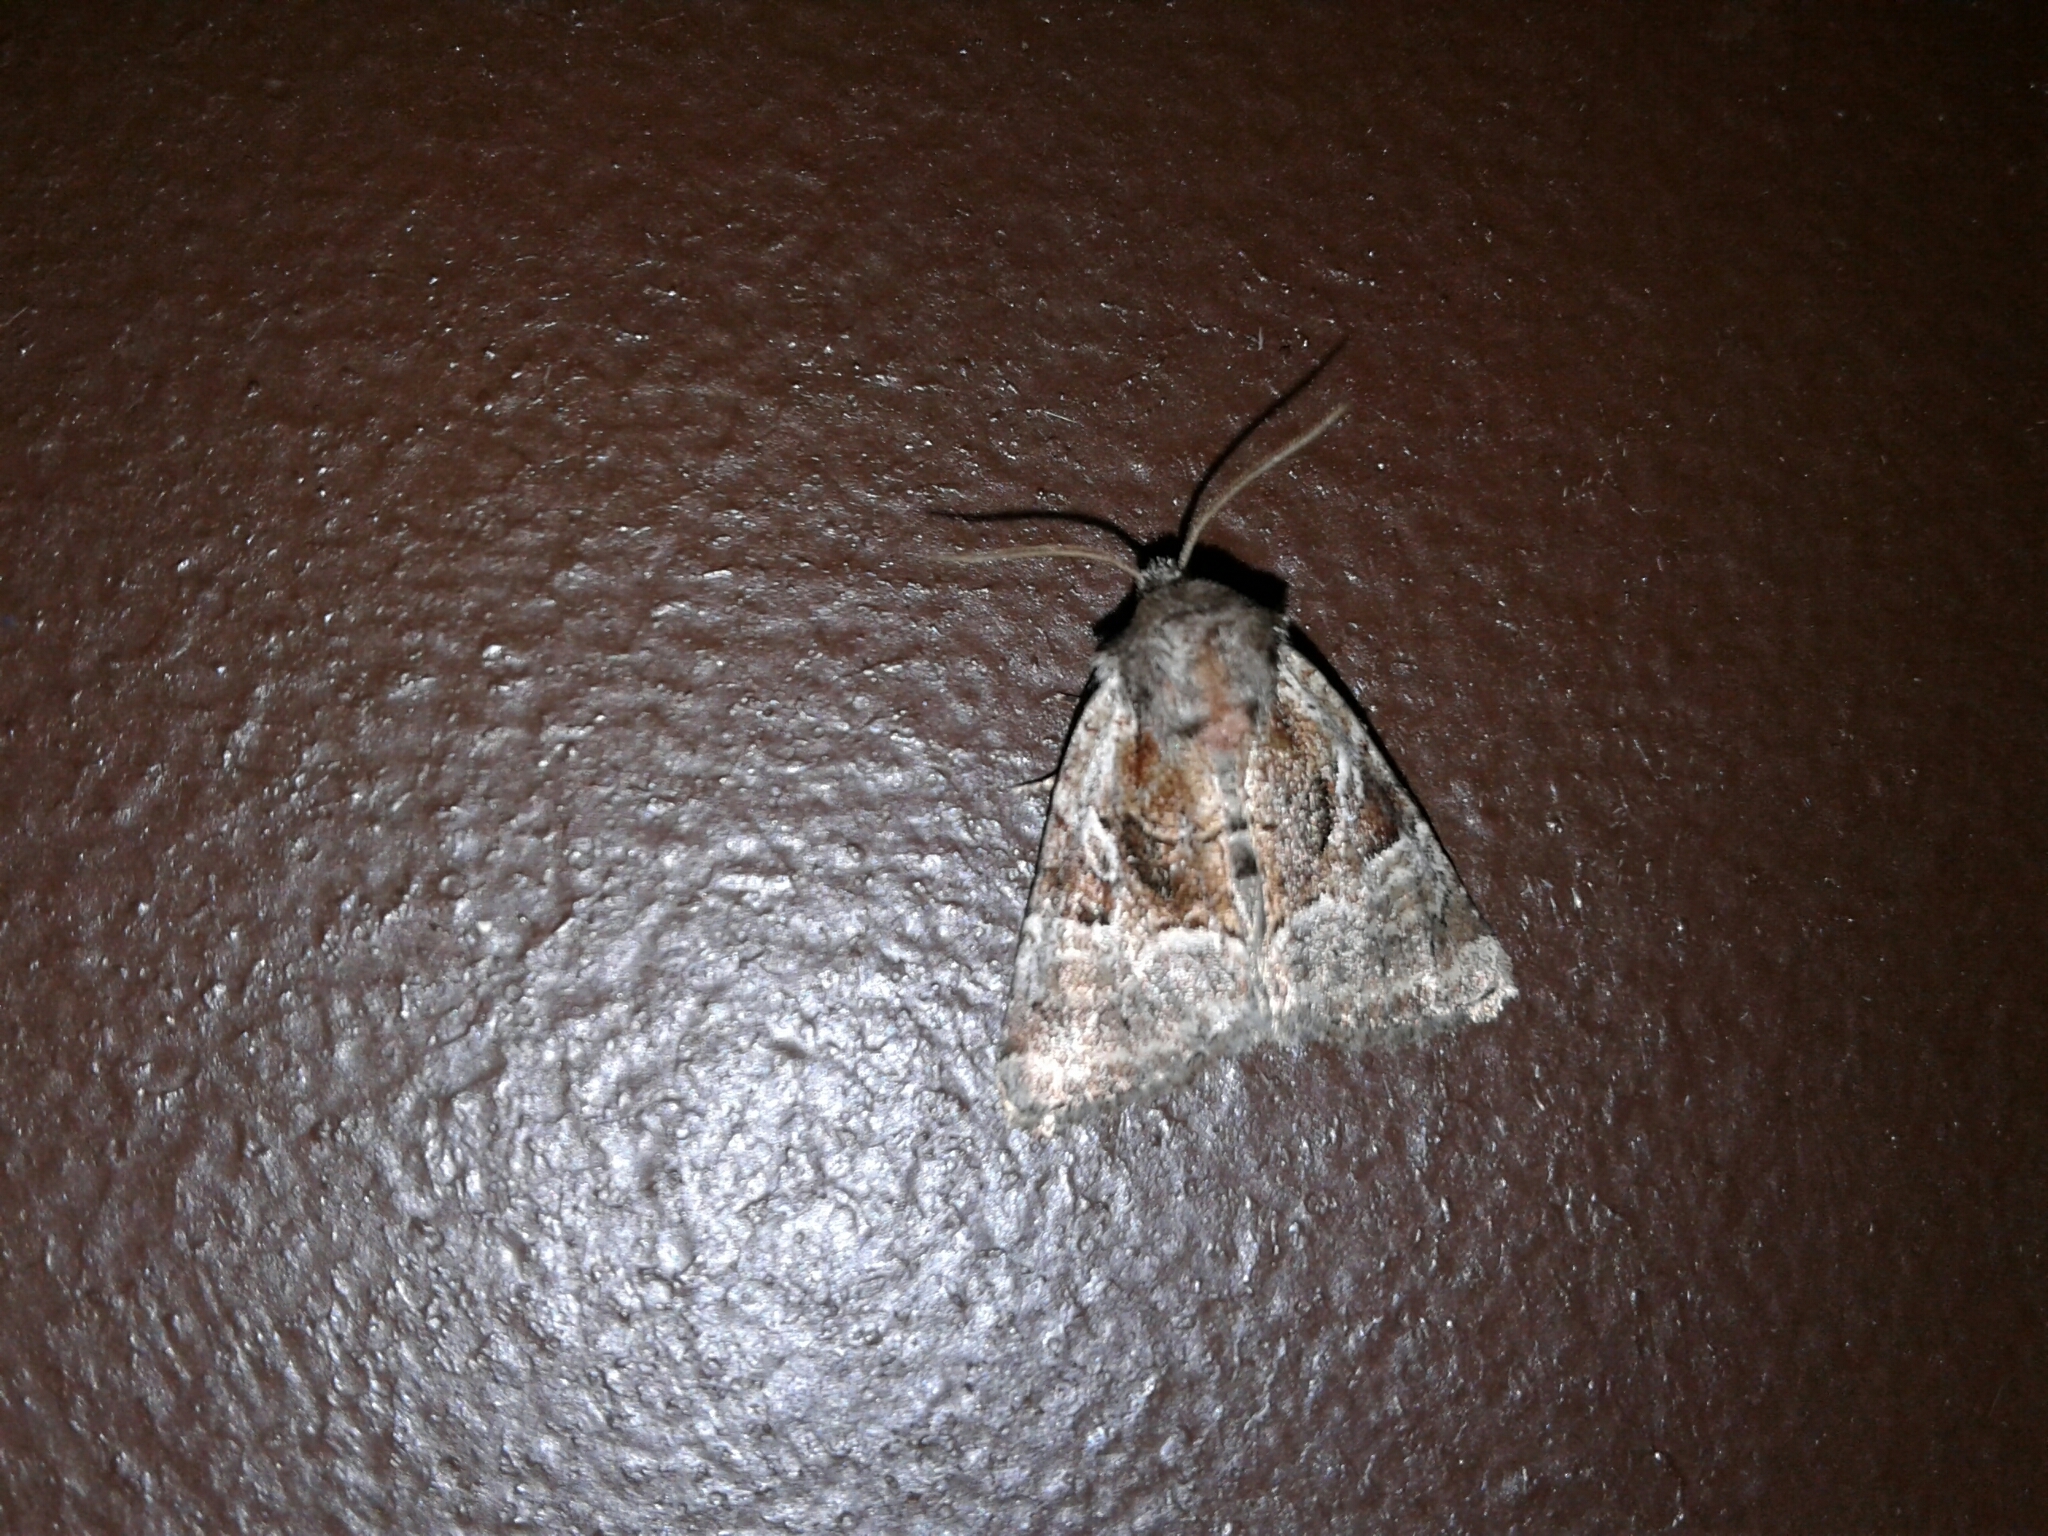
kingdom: Animalia
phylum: Arthropoda
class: Insecta
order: Lepidoptera
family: Noctuidae
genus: Meropleon
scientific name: Meropleon ambifusca
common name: Newman's brocade
